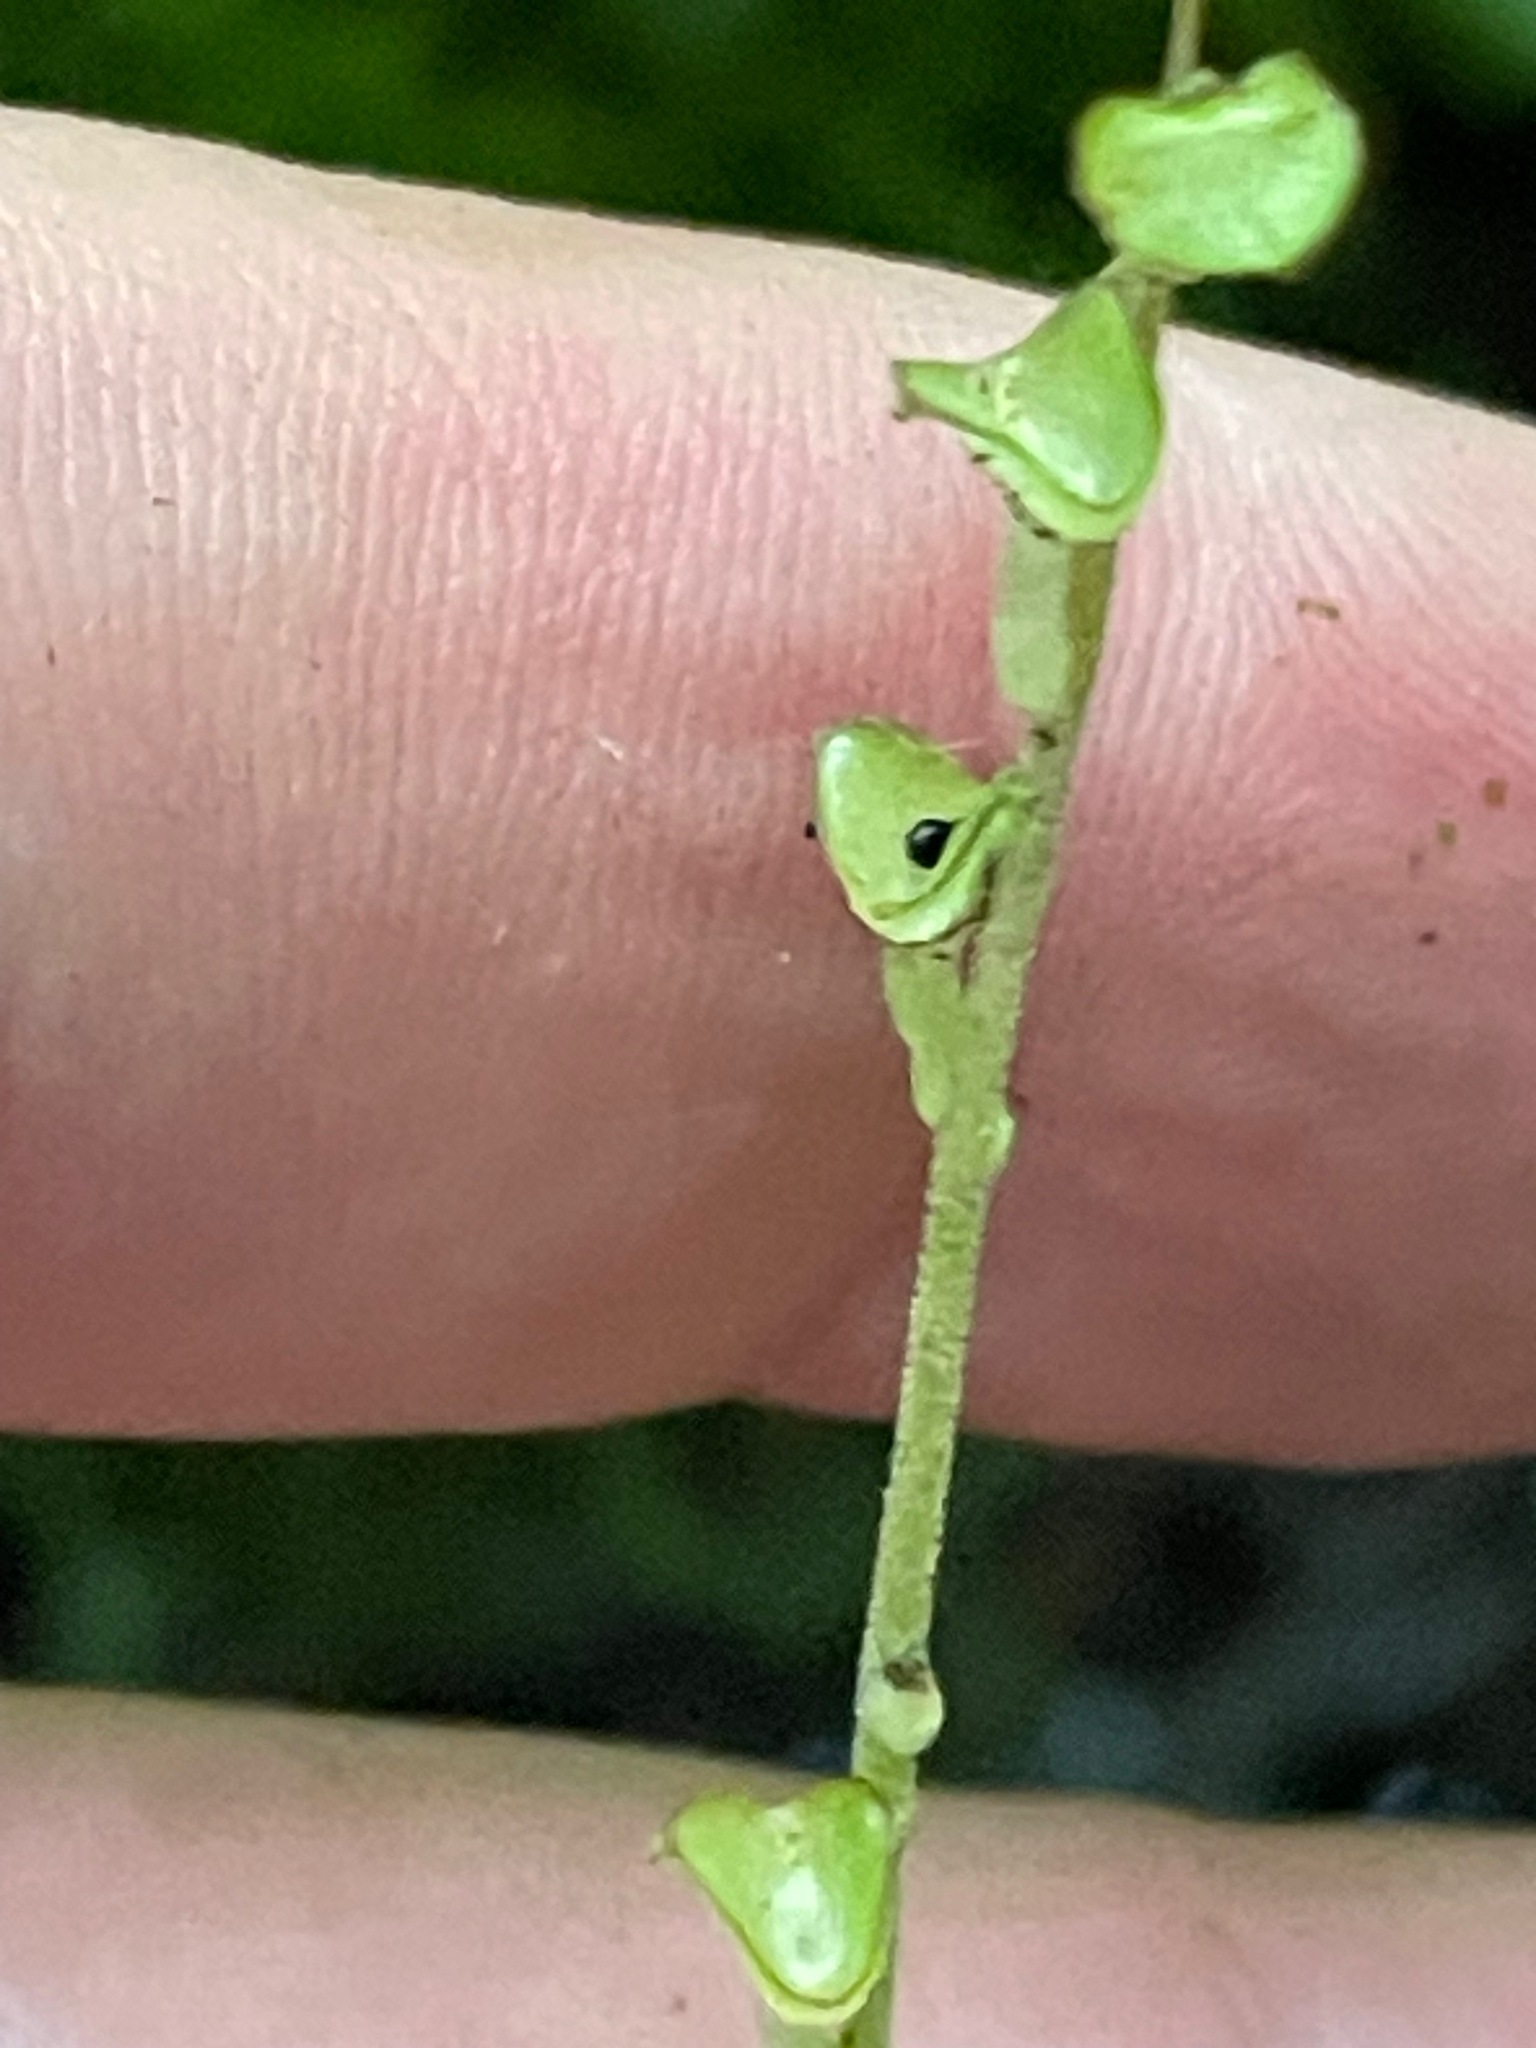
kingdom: Plantae
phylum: Tracheophyta
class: Magnoliopsida
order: Saxifragales
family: Saxifragaceae
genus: Mitella
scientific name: Mitella diphylla
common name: Coolwort
